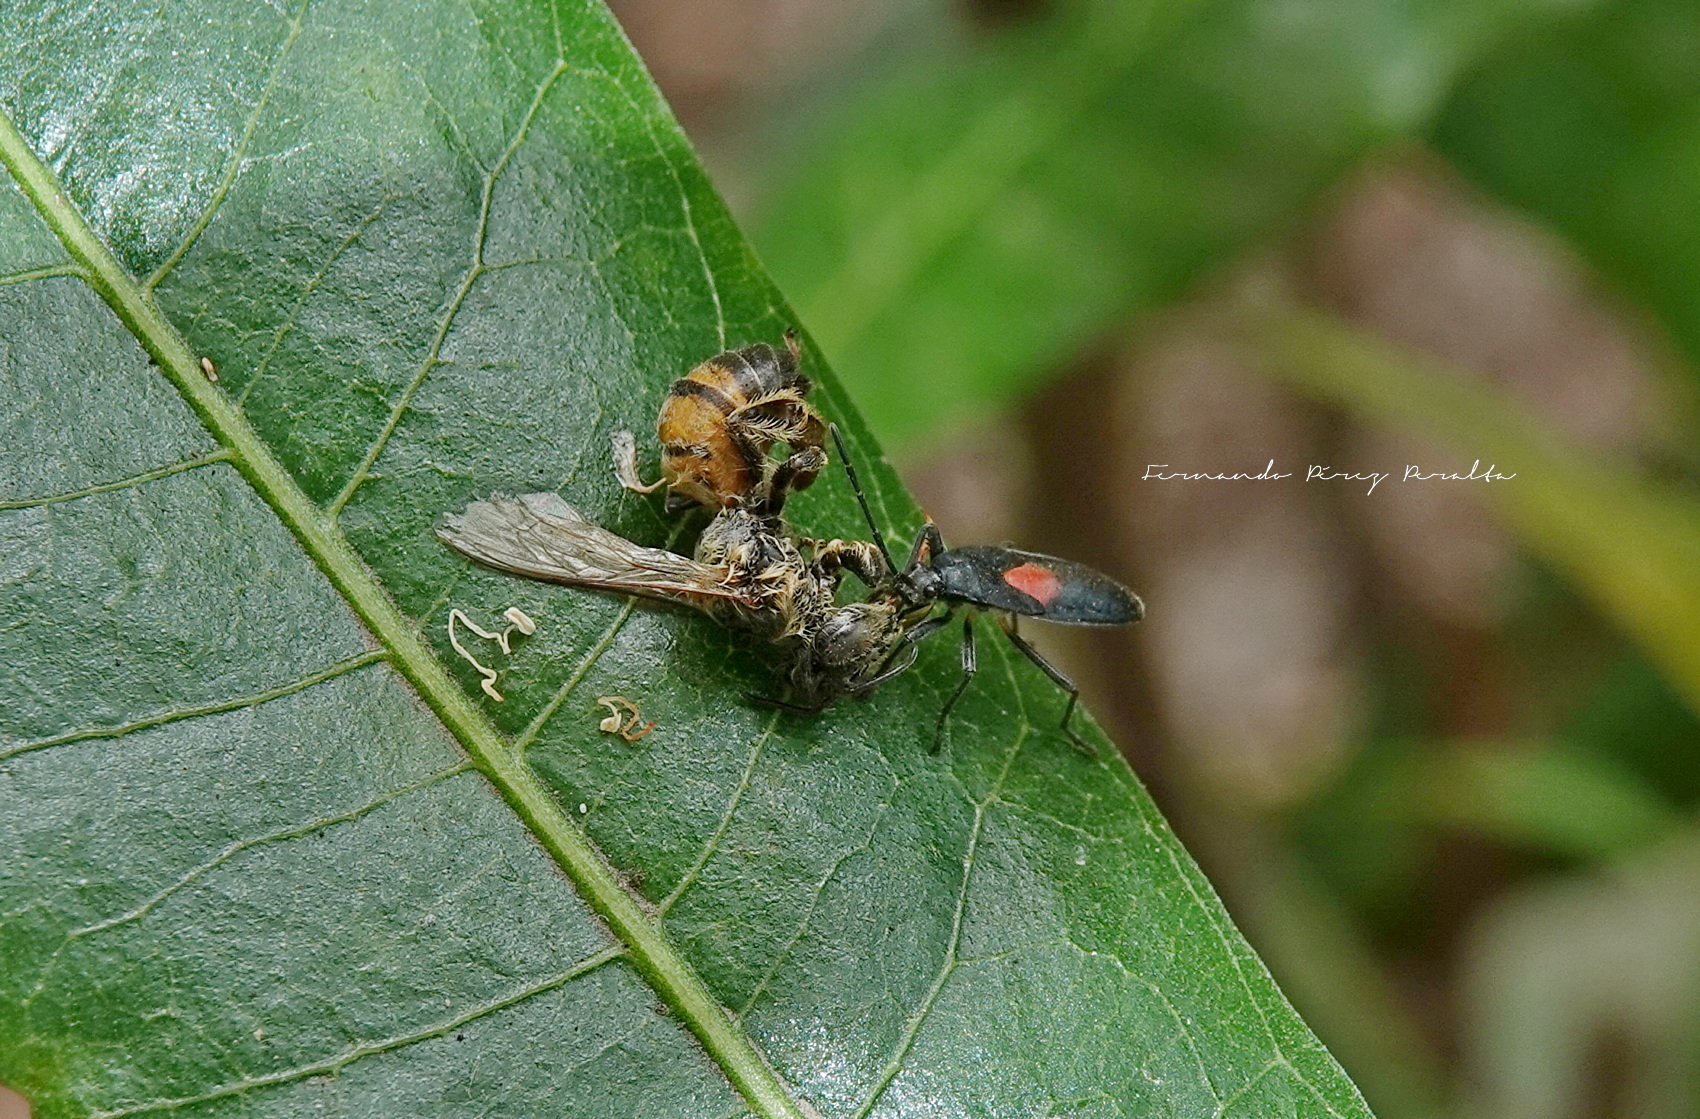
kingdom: Animalia
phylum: Arthropoda
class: Insecta
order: Hymenoptera
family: Apidae
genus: Apis
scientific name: Apis mellifera
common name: Honey bee
